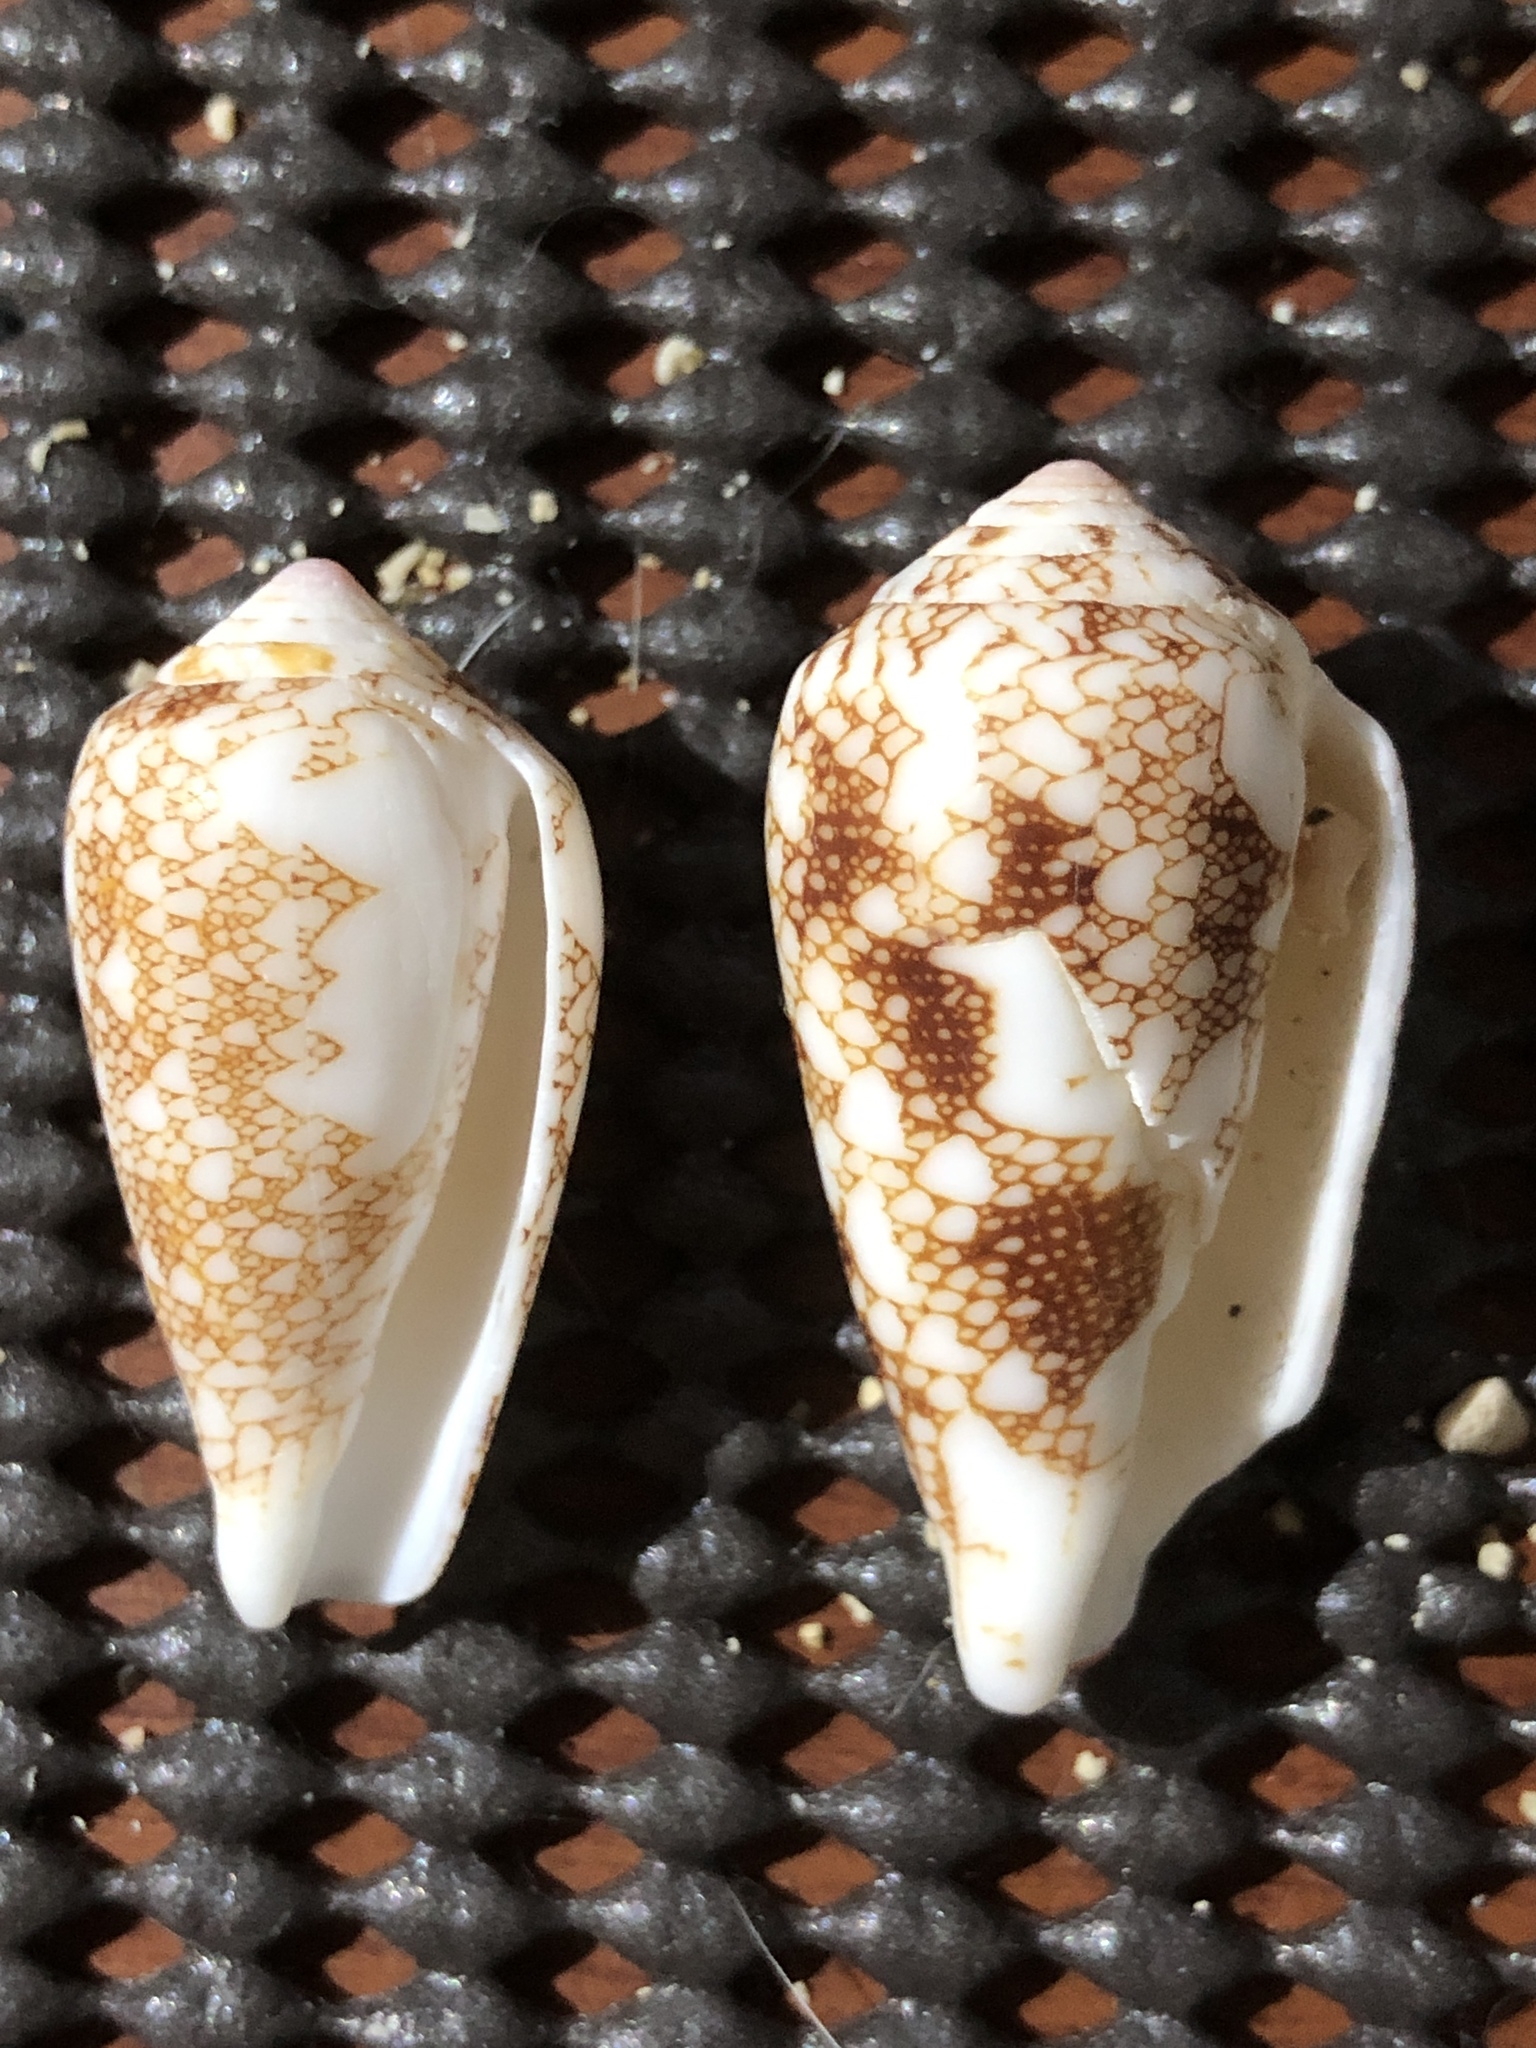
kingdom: Animalia
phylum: Mollusca
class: Gastropoda
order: Neogastropoda
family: Conidae
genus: Conus
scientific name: Conus omaria
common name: Omaria cone
